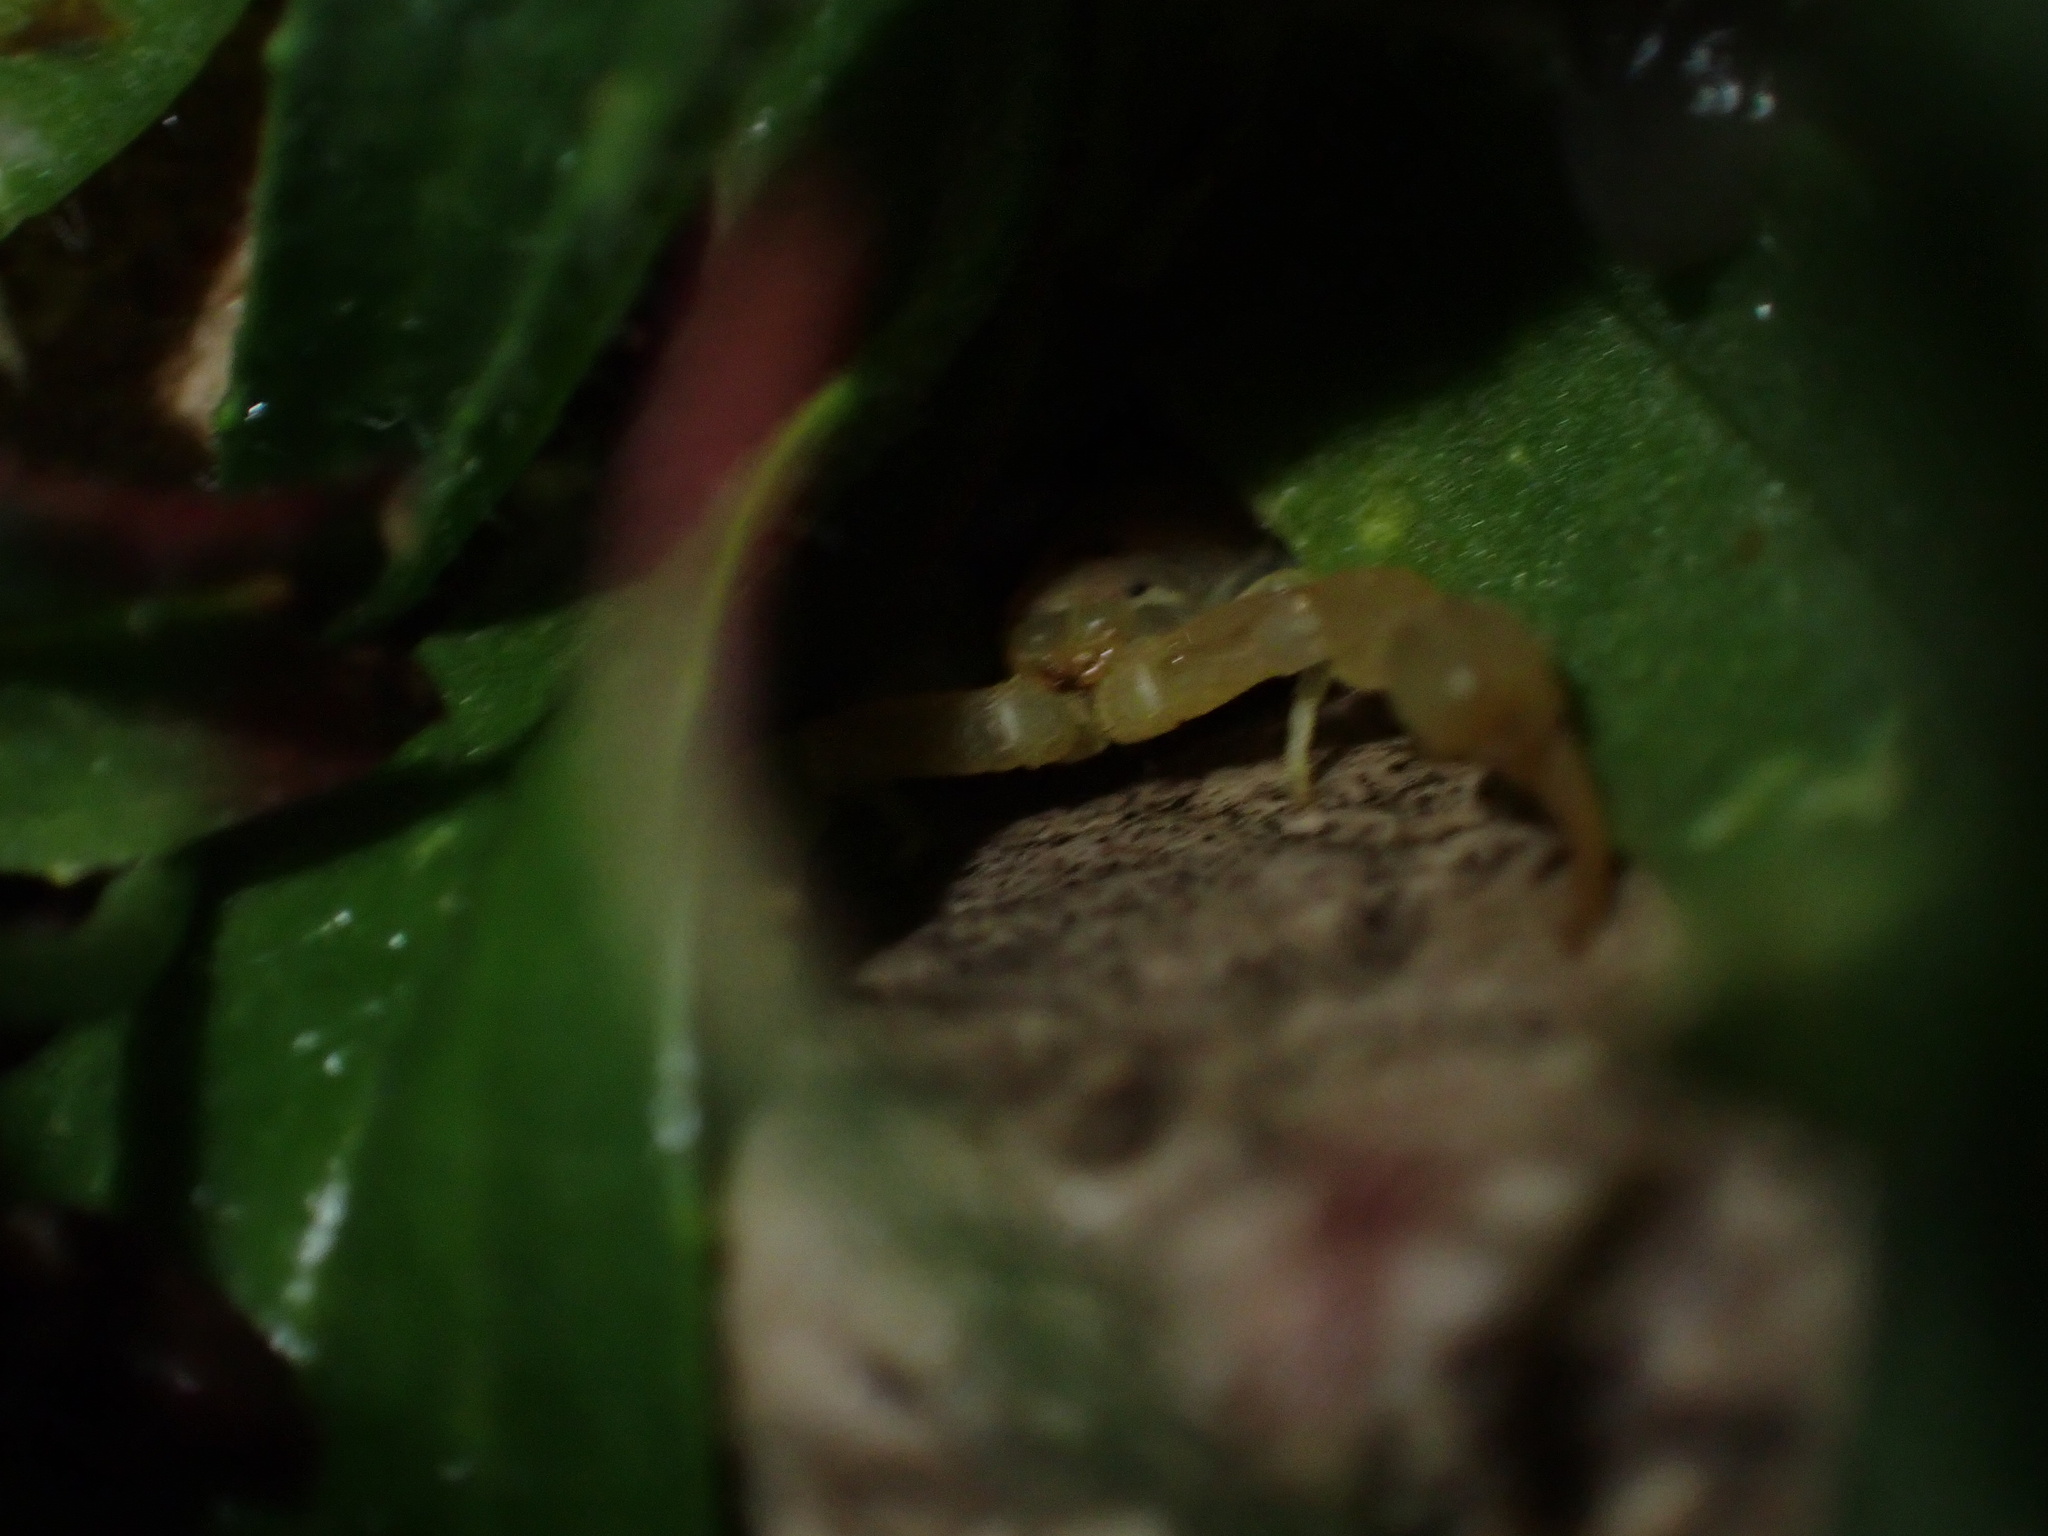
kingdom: Animalia
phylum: Arthropoda
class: Arachnida
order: Scorpiones
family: Buthidae
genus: Razianus
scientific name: Razianus zarudnyi
